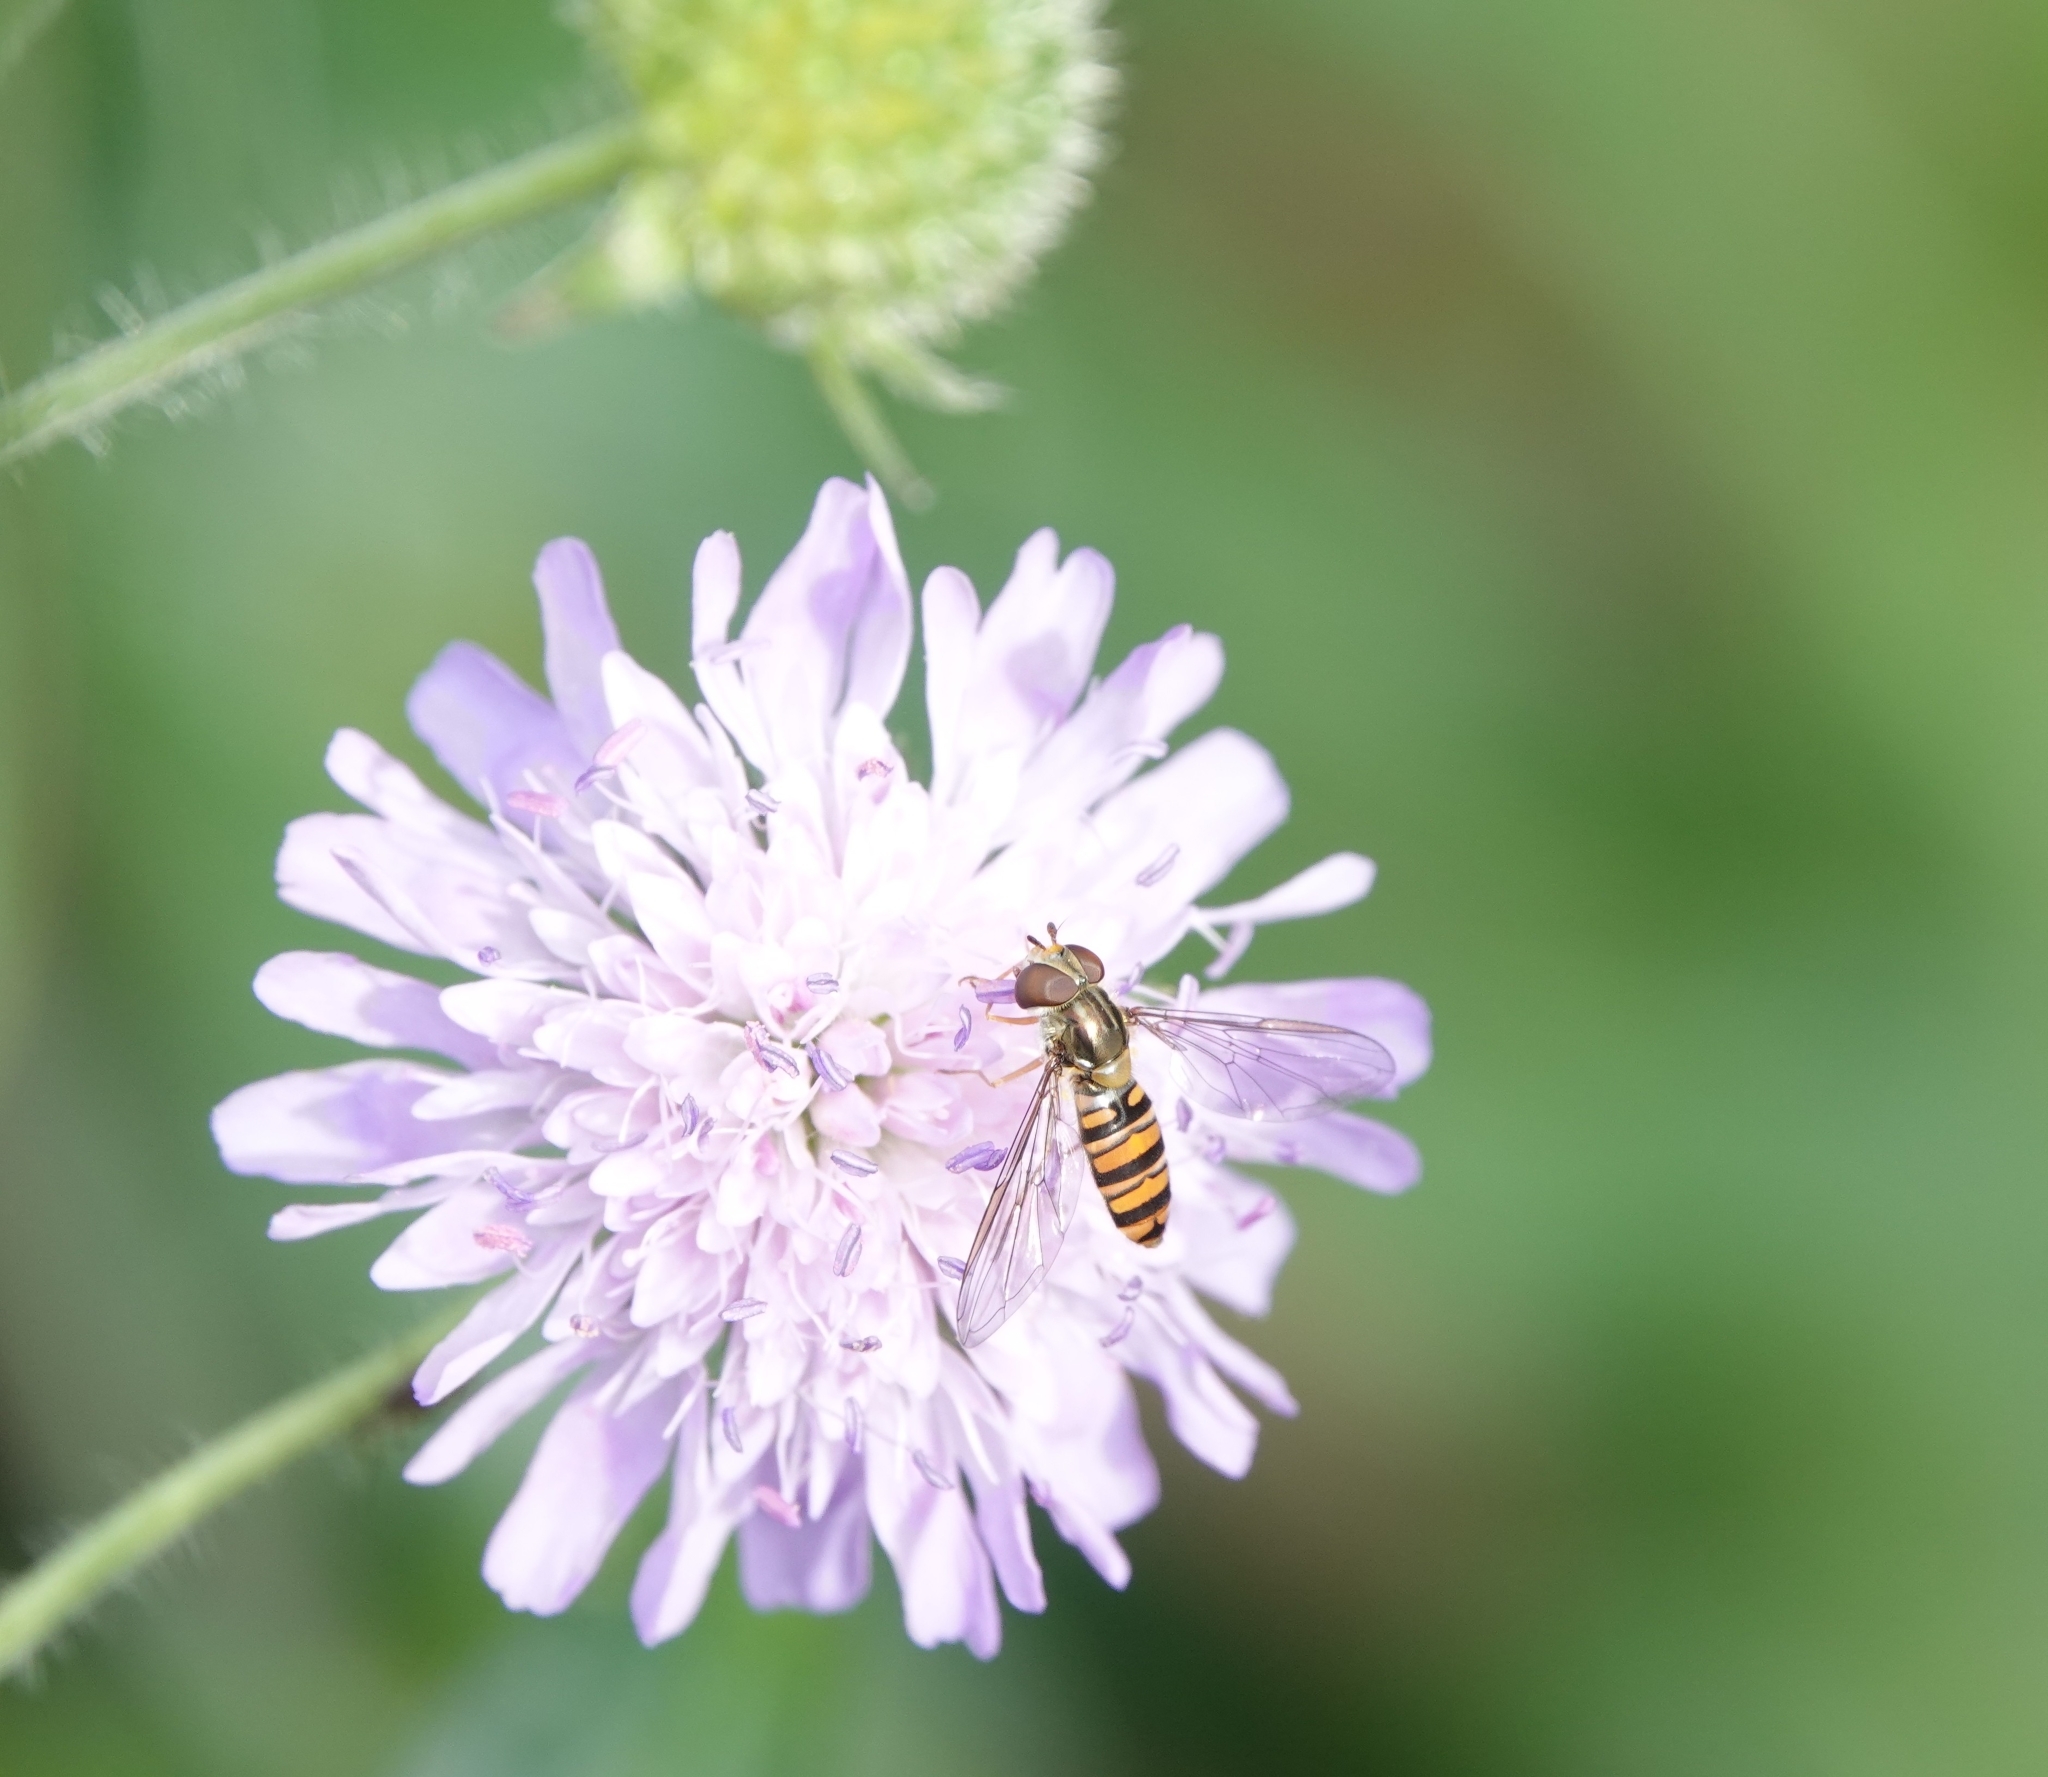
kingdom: Animalia
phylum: Arthropoda
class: Insecta
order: Diptera
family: Syrphidae
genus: Episyrphus
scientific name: Episyrphus balteatus
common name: Marmalade hoverfly
